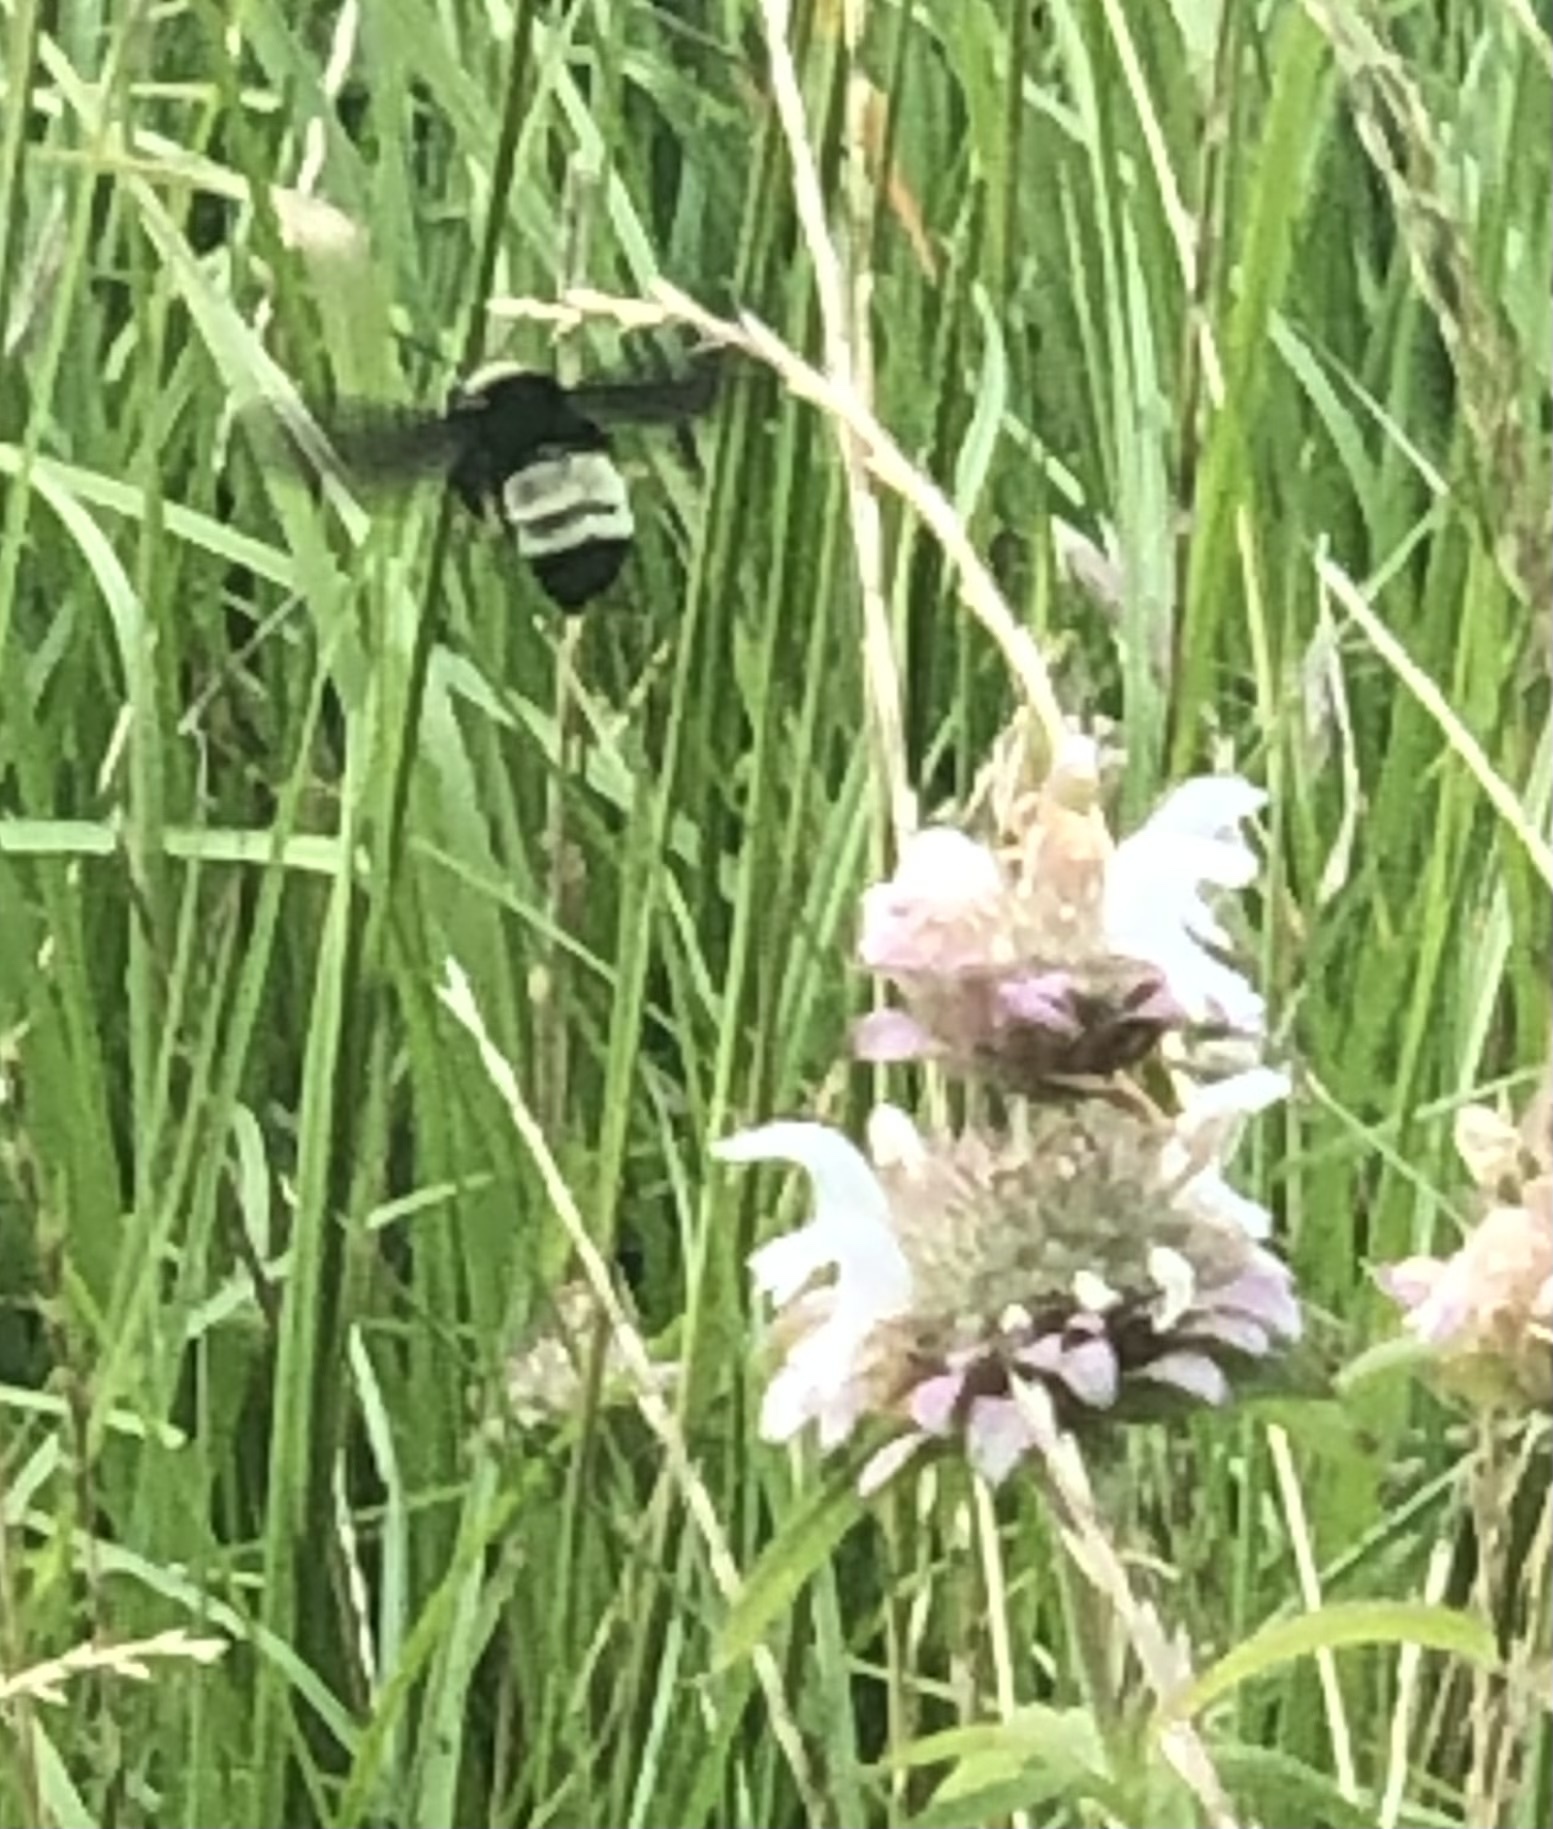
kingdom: Animalia
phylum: Arthropoda
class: Insecta
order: Hymenoptera
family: Apidae
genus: Bombus
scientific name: Bombus pensylvanicus
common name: Bumble bee
